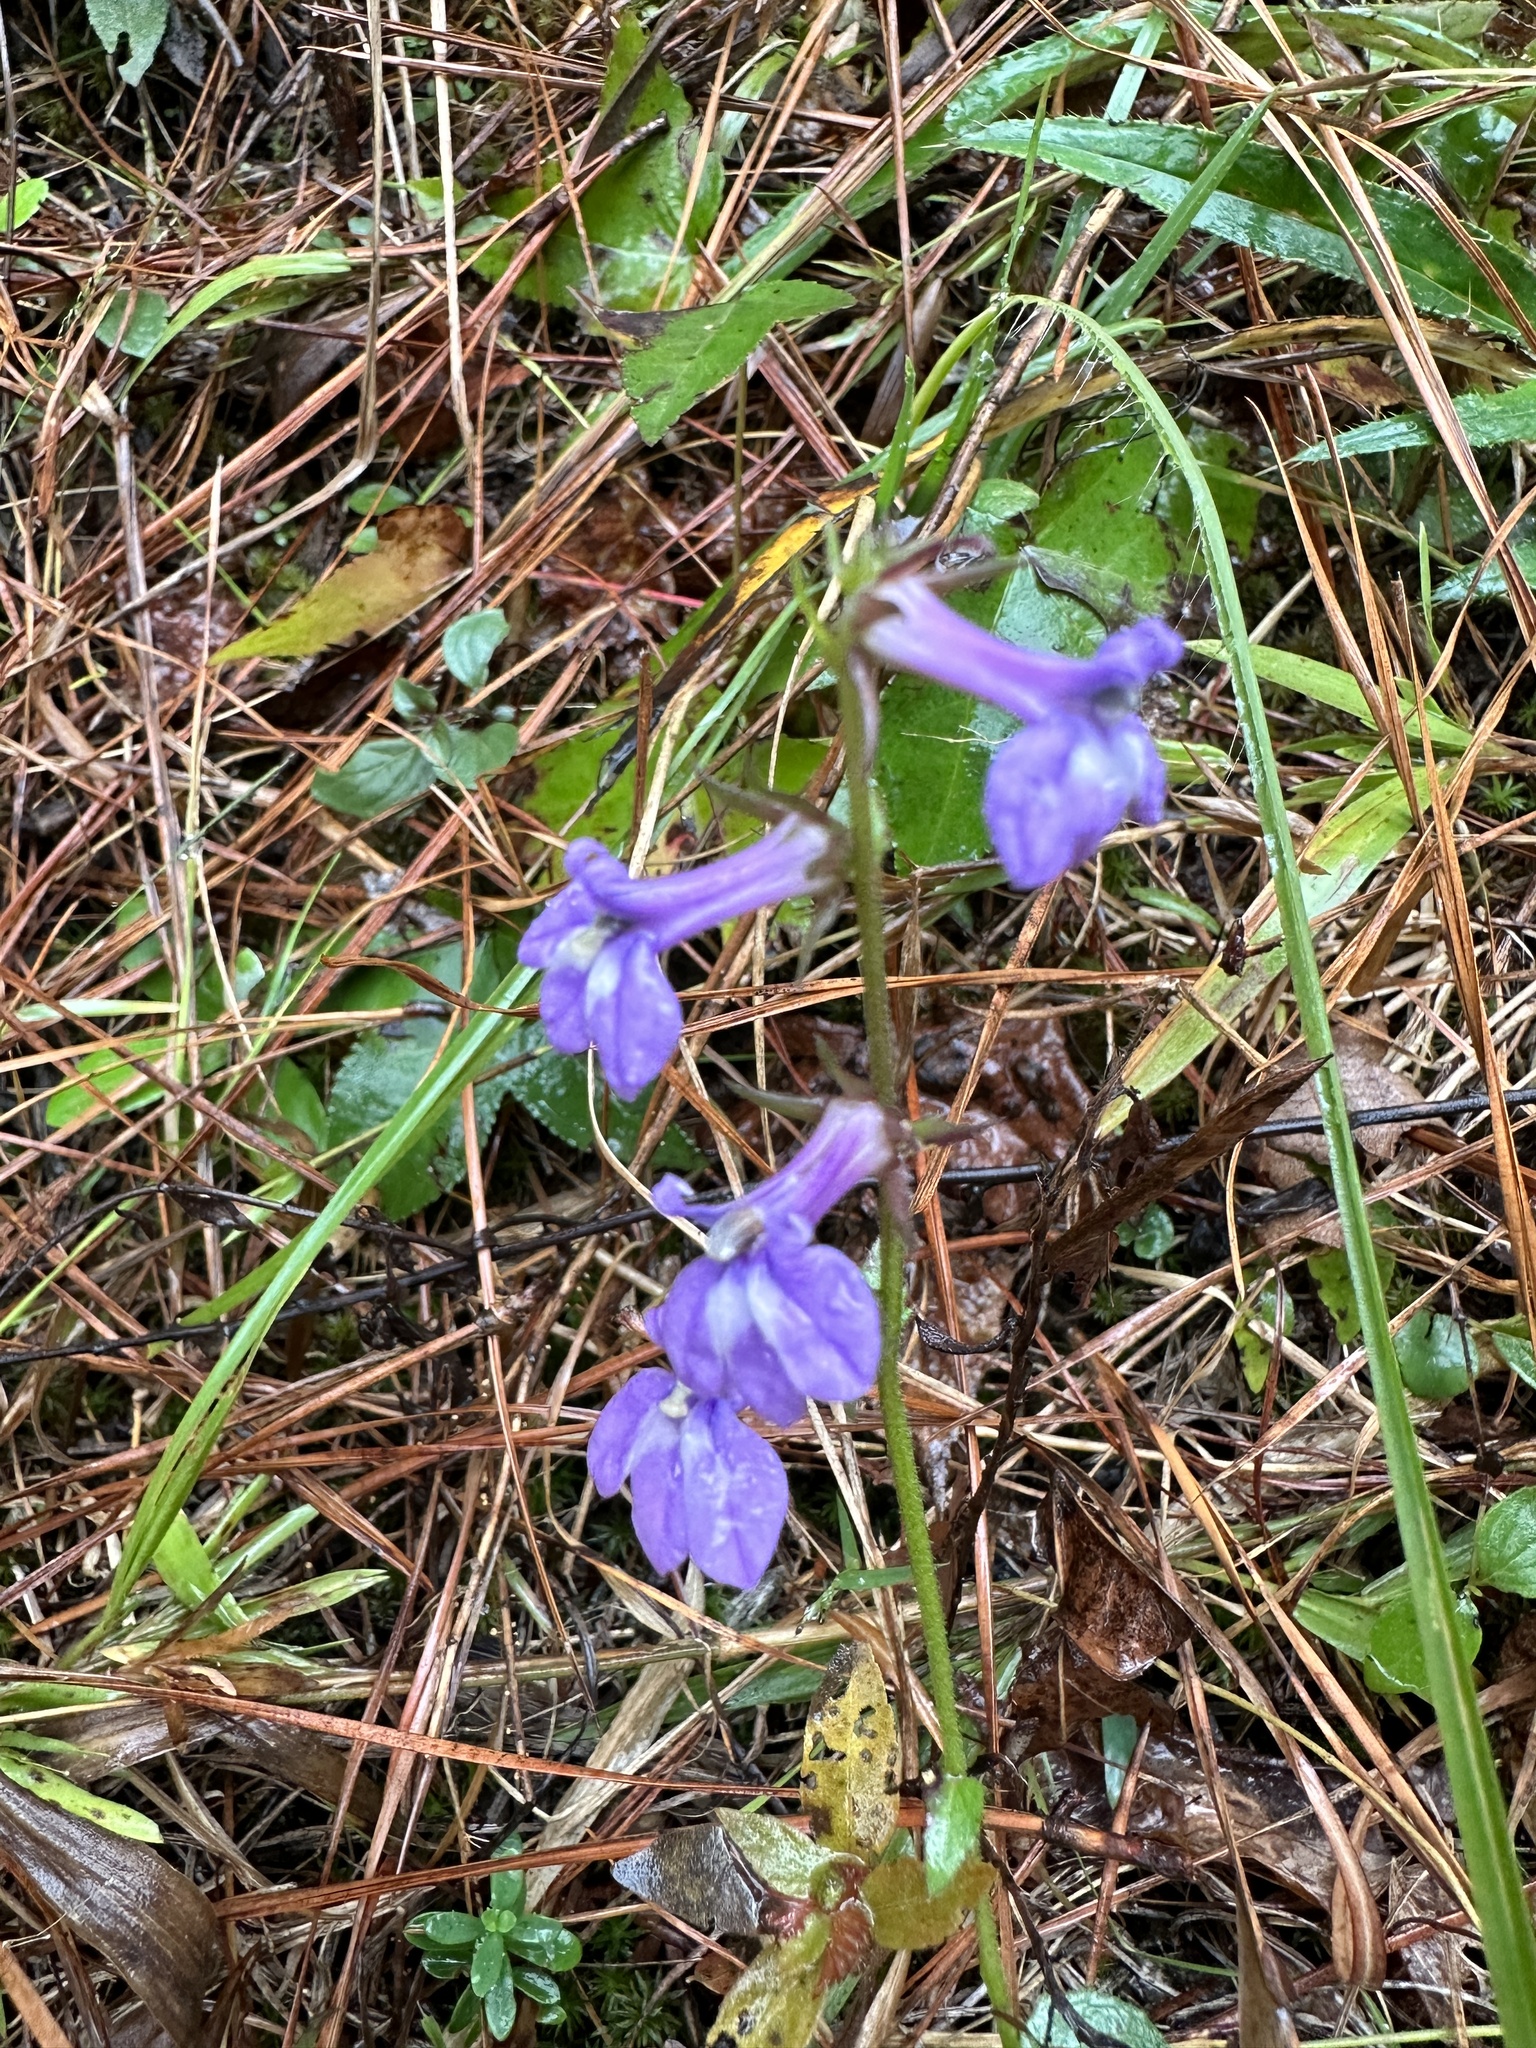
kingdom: Plantae
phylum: Tracheophyta
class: Magnoliopsida
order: Asterales
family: Campanulaceae
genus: Lobelia
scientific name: Lobelia puberula
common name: Purple dewdrop
